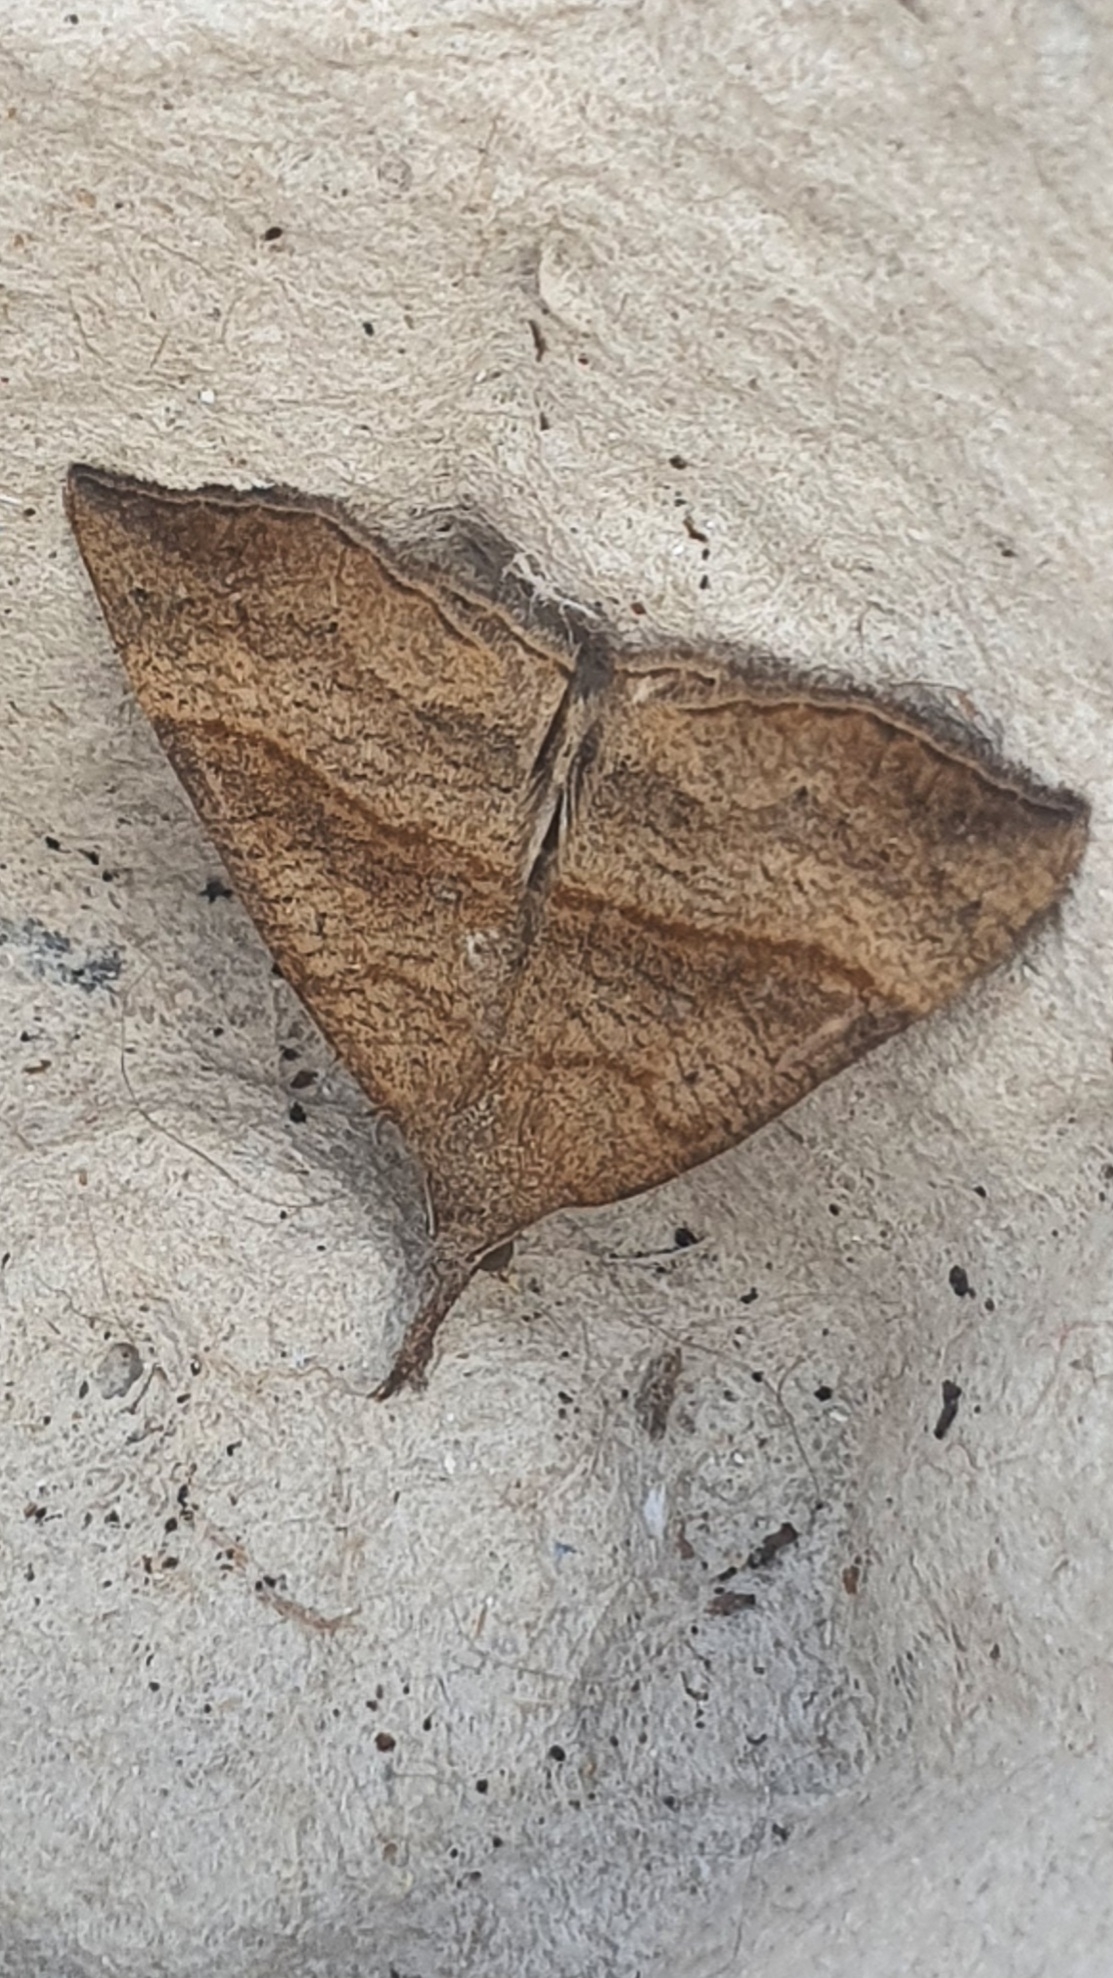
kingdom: Animalia
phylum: Arthropoda
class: Insecta
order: Lepidoptera
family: Erebidae
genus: Hypena
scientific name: Hypena proboscidalis
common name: Snout
